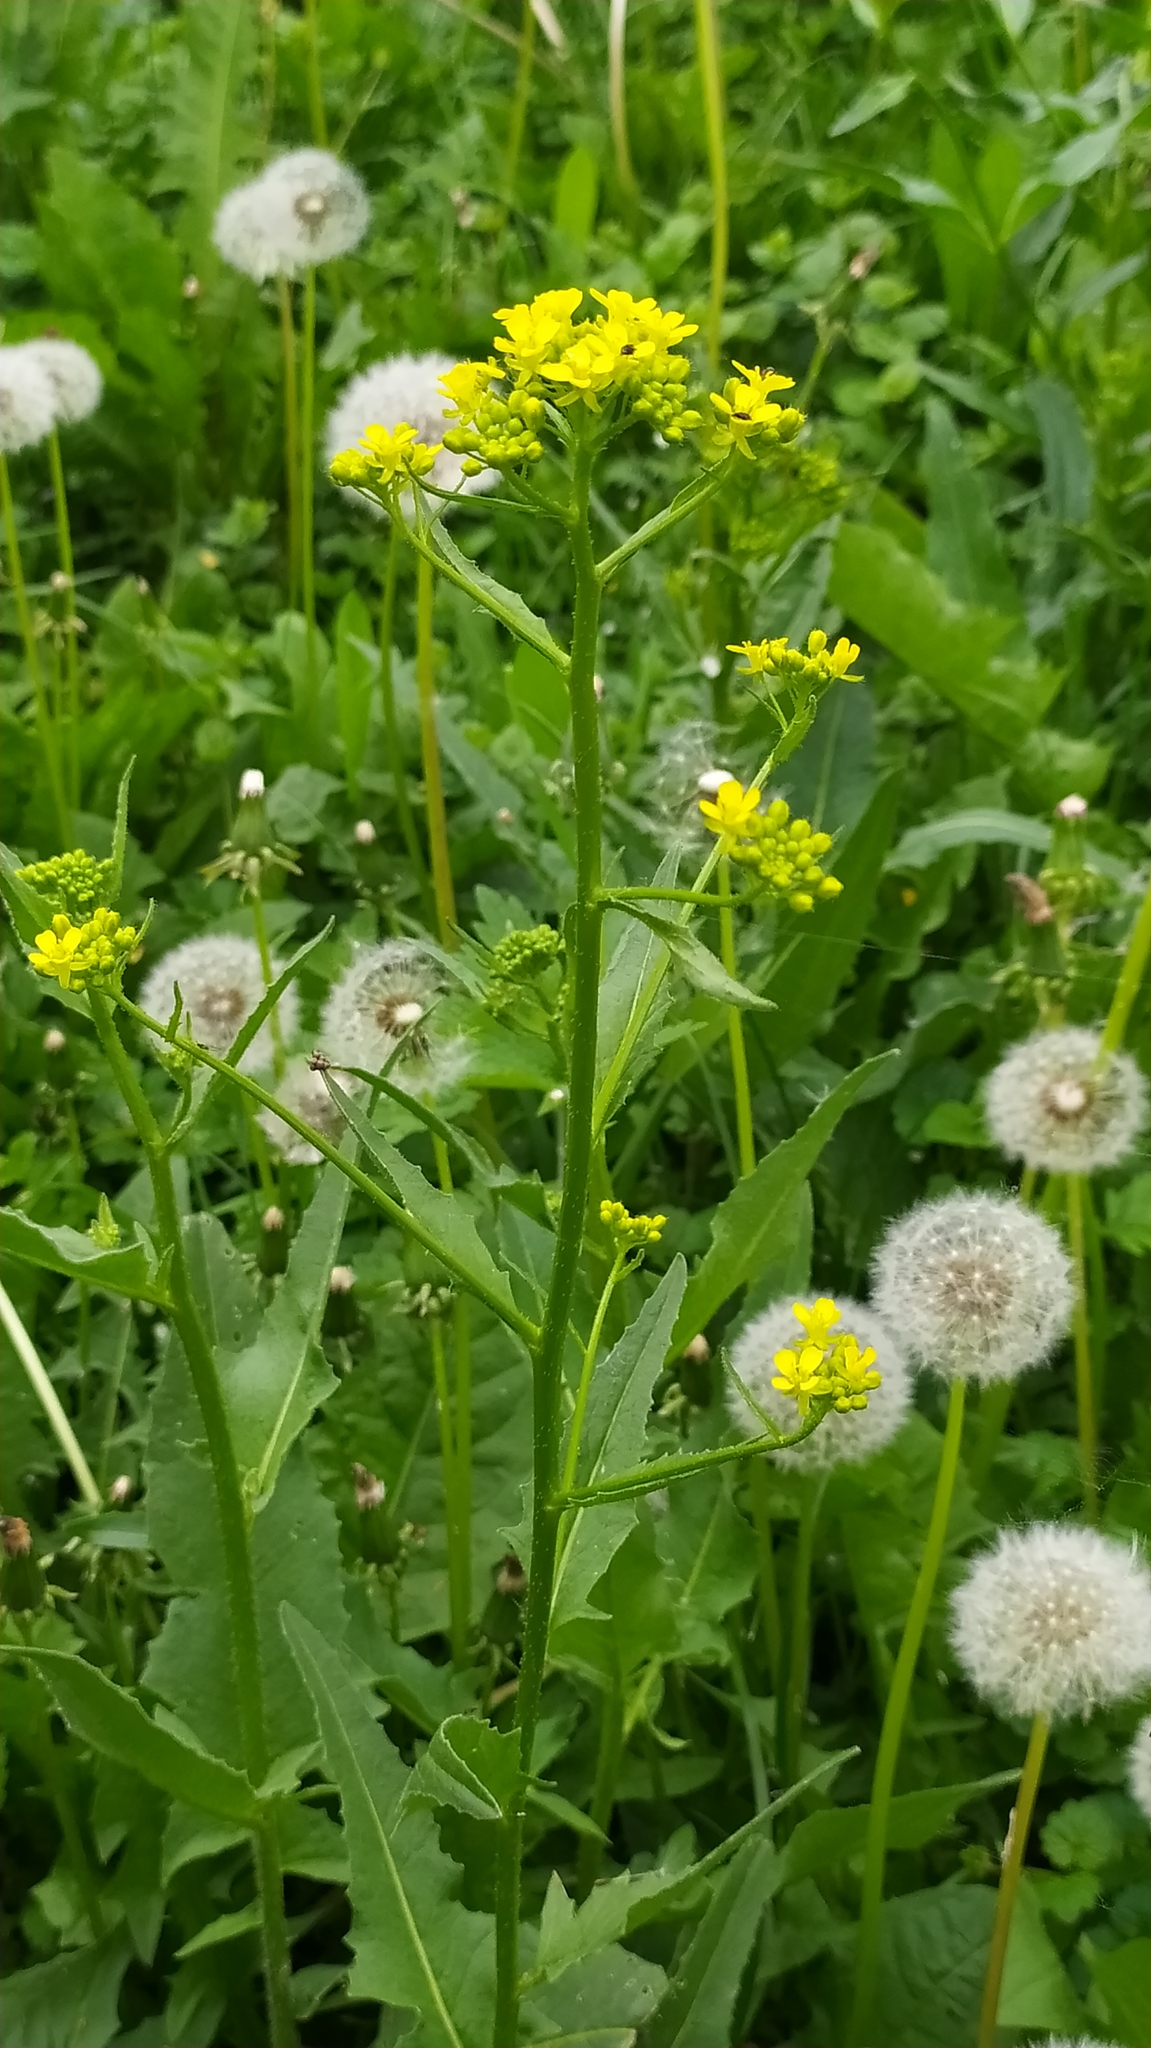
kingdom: Plantae
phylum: Tracheophyta
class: Magnoliopsida
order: Brassicales
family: Brassicaceae
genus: Bunias
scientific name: Bunias orientalis
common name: Warty-cabbage
